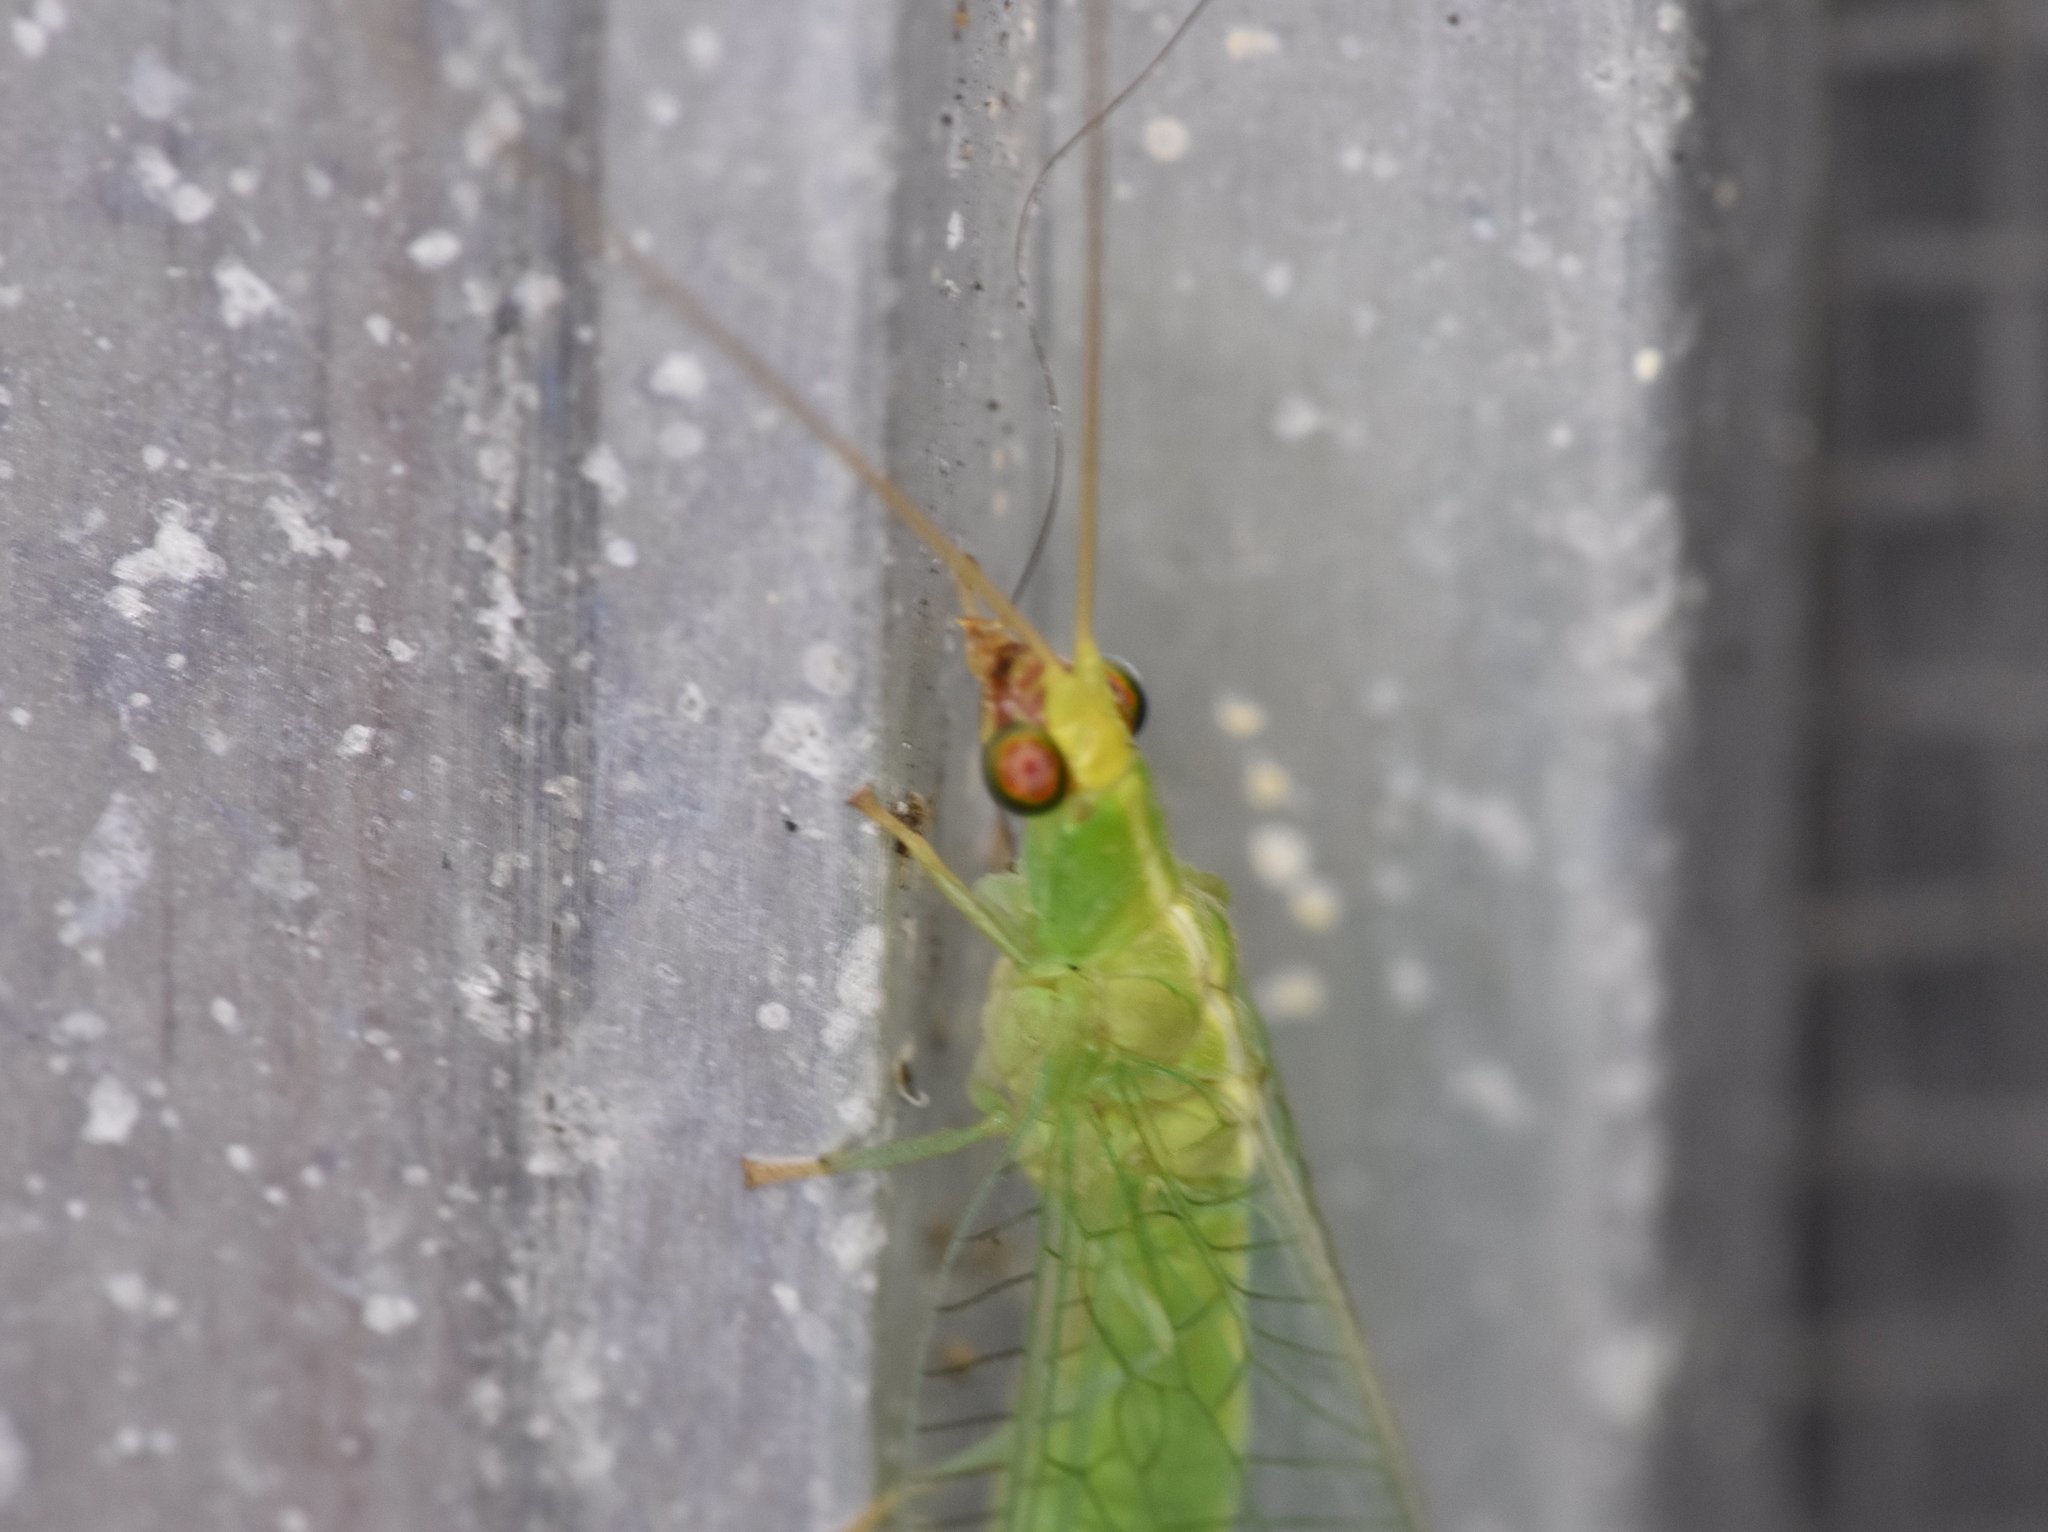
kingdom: Animalia
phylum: Arthropoda
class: Insecta
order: Neuroptera
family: Chrysopidae
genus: Chrysopodes
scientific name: Chrysopodes collaris
